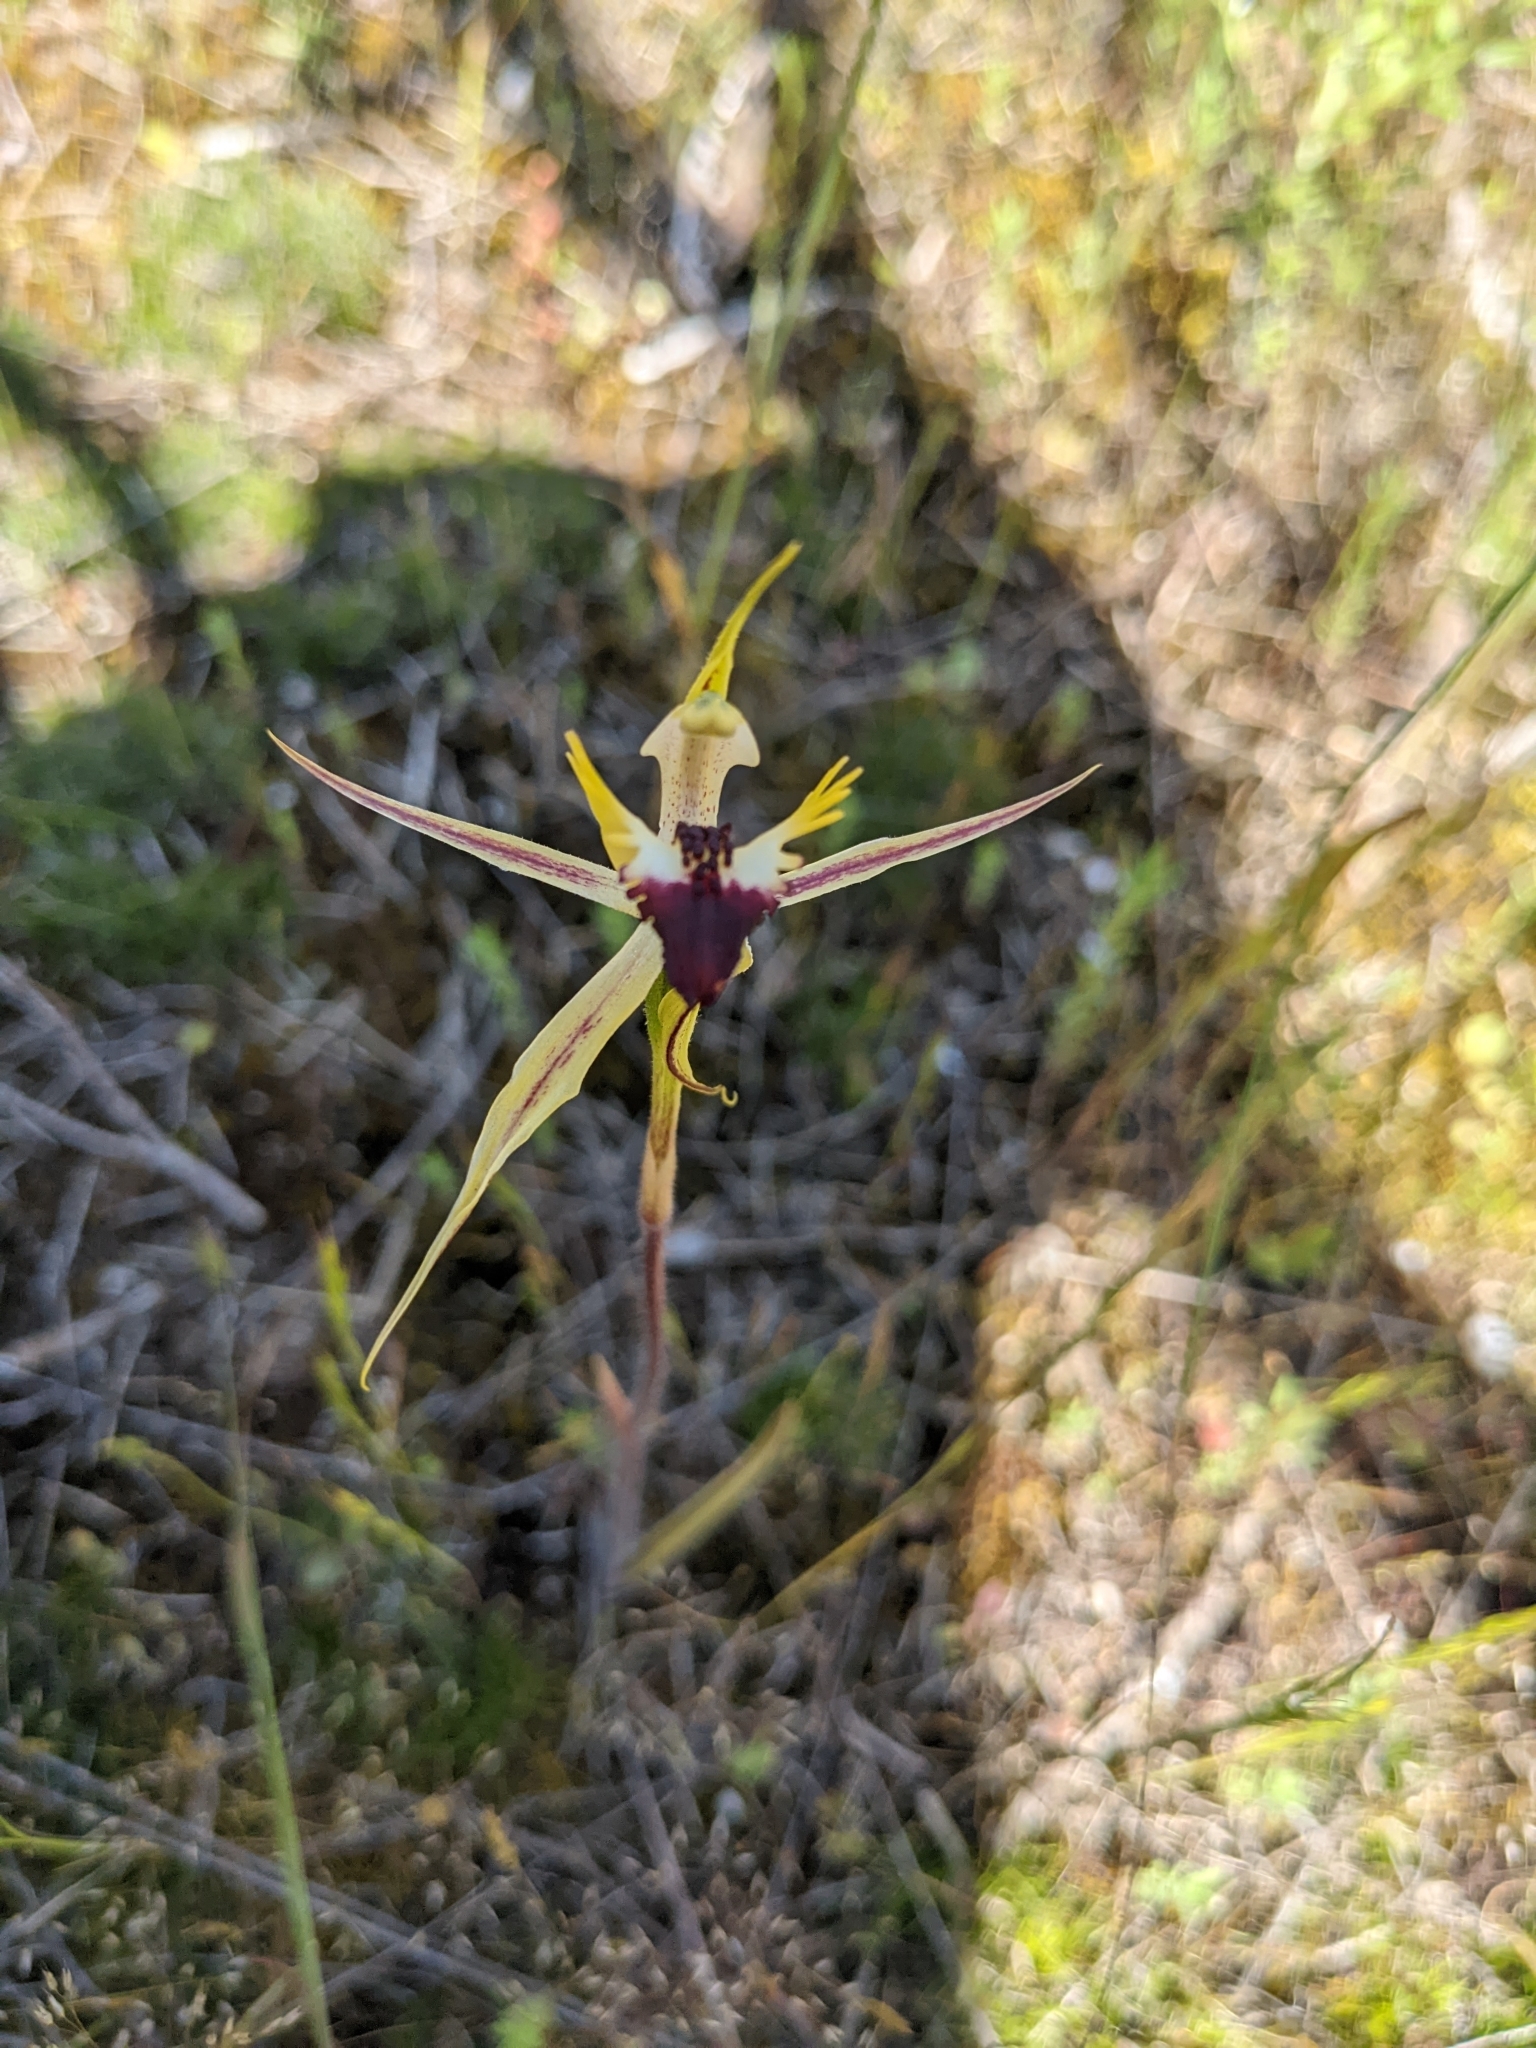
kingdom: Plantae
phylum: Tracheophyta
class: Liliopsida
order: Asparagales
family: Orchidaceae
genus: Caladenia
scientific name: Caladenia stricta
